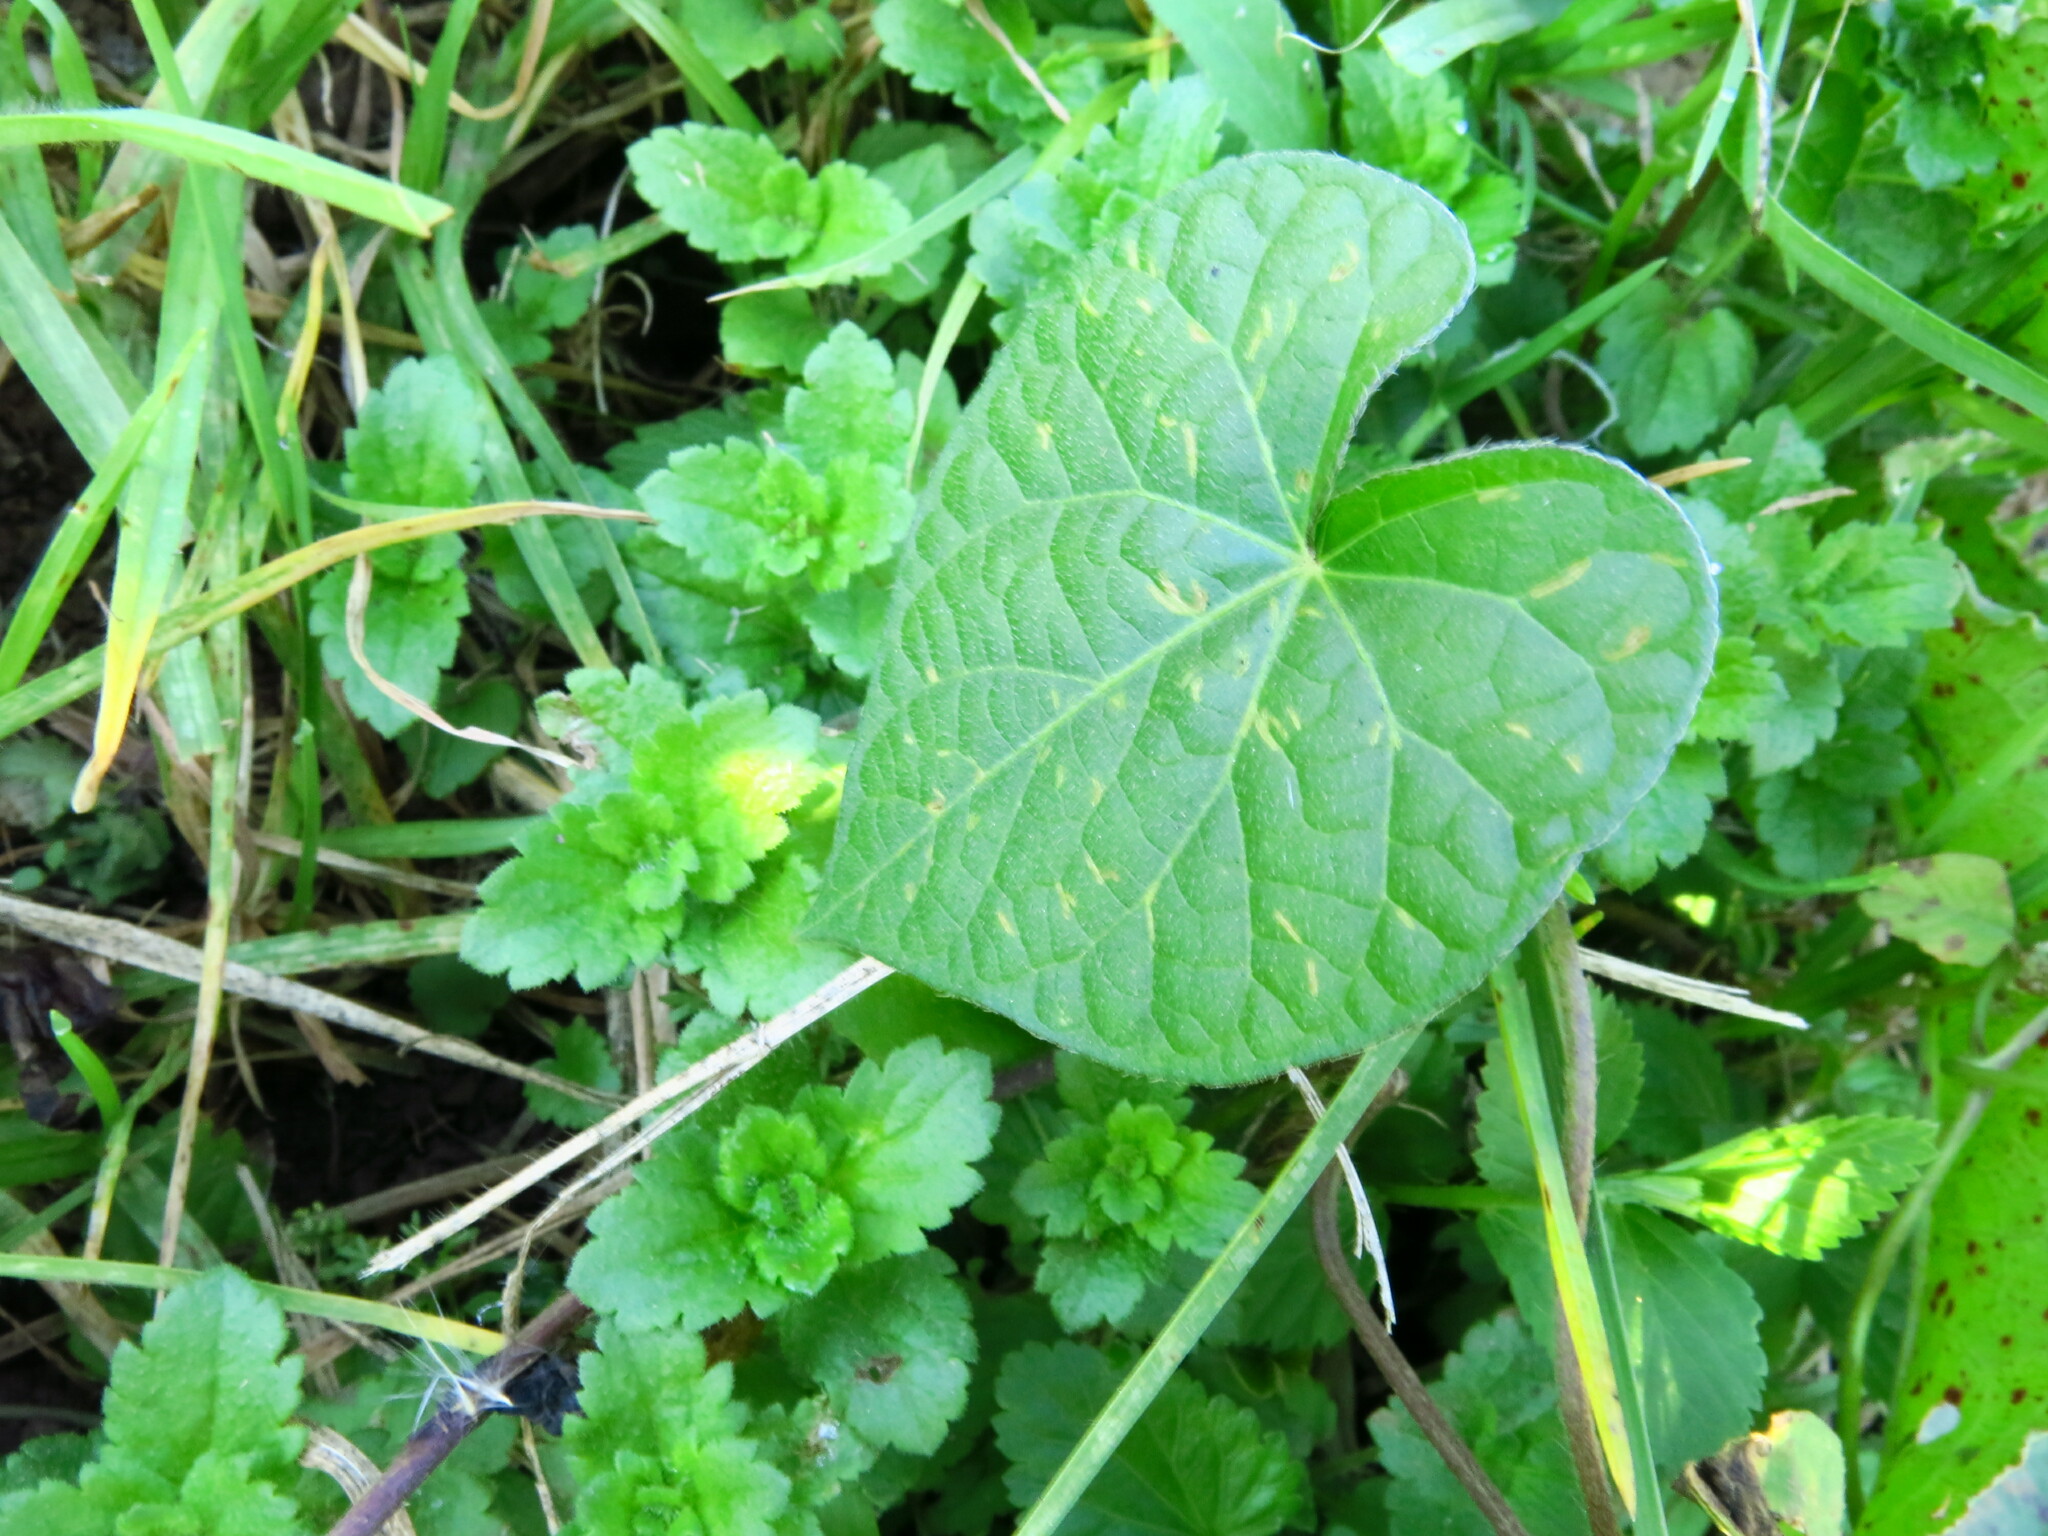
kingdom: Plantae
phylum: Tracheophyta
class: Magnoliopsida
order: Solanales
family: Convolvulaceae
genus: Ipomoea
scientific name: Ipomoea purpurea
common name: Common morning-glory
